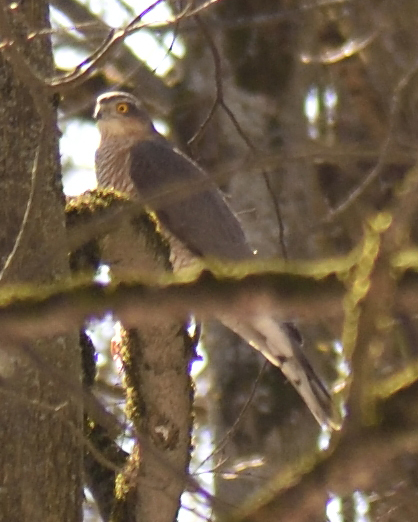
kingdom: Animalia
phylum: Chordata
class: Aves
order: Accipitriformes
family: Accipitridae
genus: Accipiter
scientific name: Accipiter nisus
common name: Eurasian sparrowhawk
